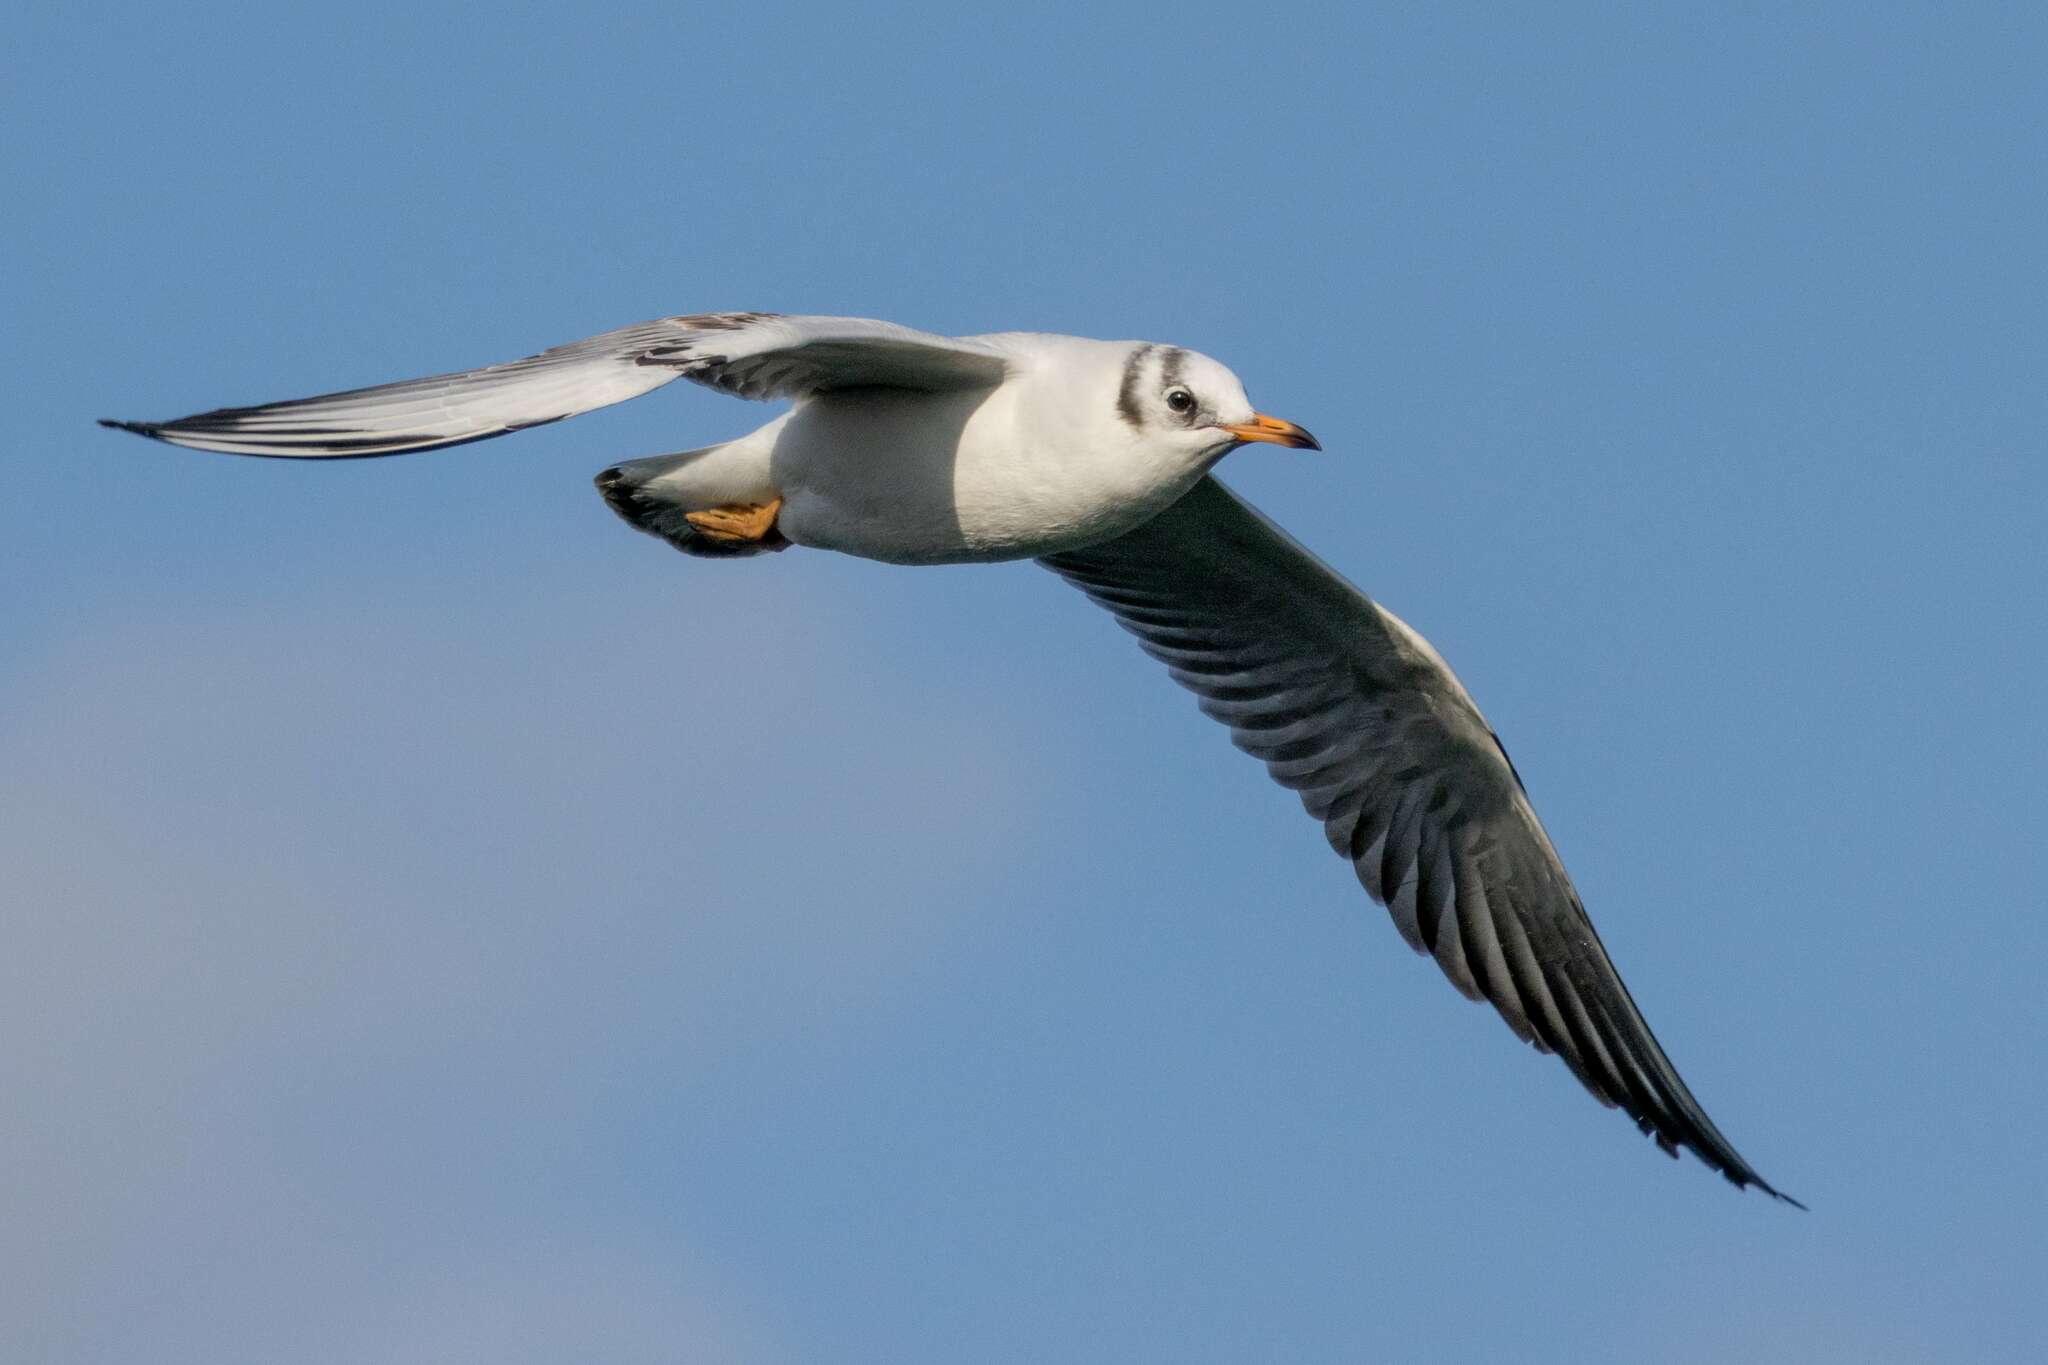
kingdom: Animalia
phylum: Chordata
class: Aves
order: Charadriiformes
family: Laridae
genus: Chroicocephalus
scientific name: Chroicocephalus ridibundus
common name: Black-headed gull
